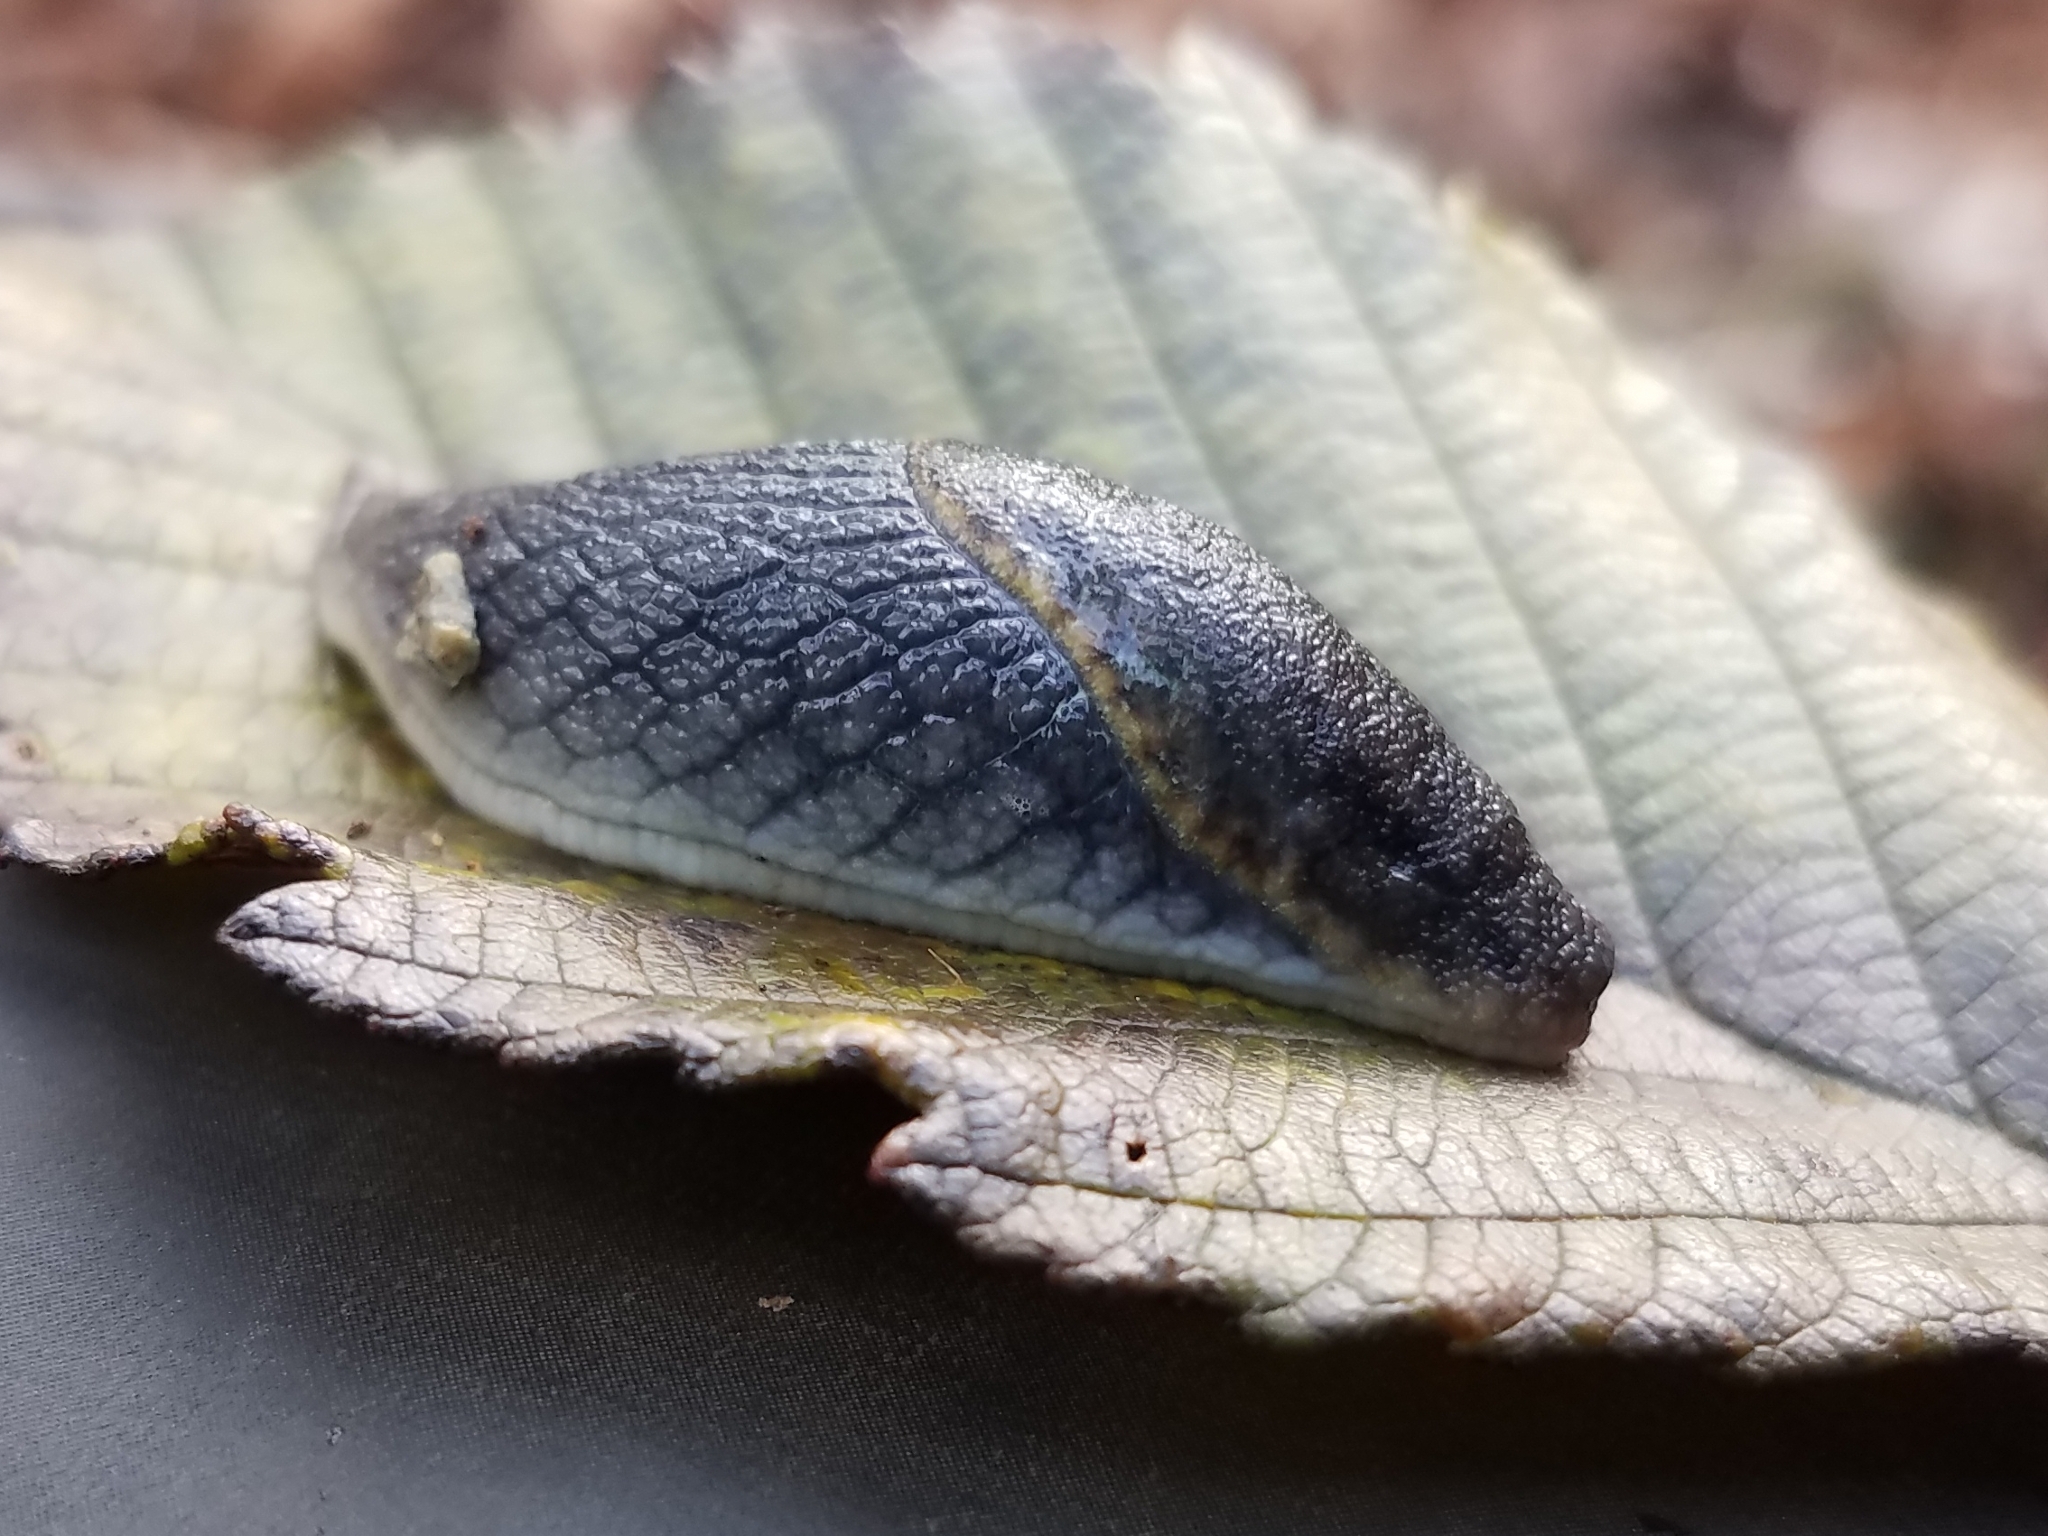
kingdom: Animalia
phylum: Mollusca
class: Gastropoda
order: Stylommatophora
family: Ariolimacidae
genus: Prophysaon
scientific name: Prophysaon foliolatum
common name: Yellow-bordered taildropper
